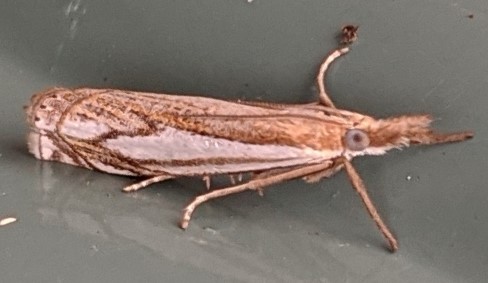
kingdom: Animalia
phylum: Arthropoda
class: Insecta
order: Lepidoptera
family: Crambidae
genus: Crambus
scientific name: Crambus saltuellus
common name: Pasture grass-veneer
